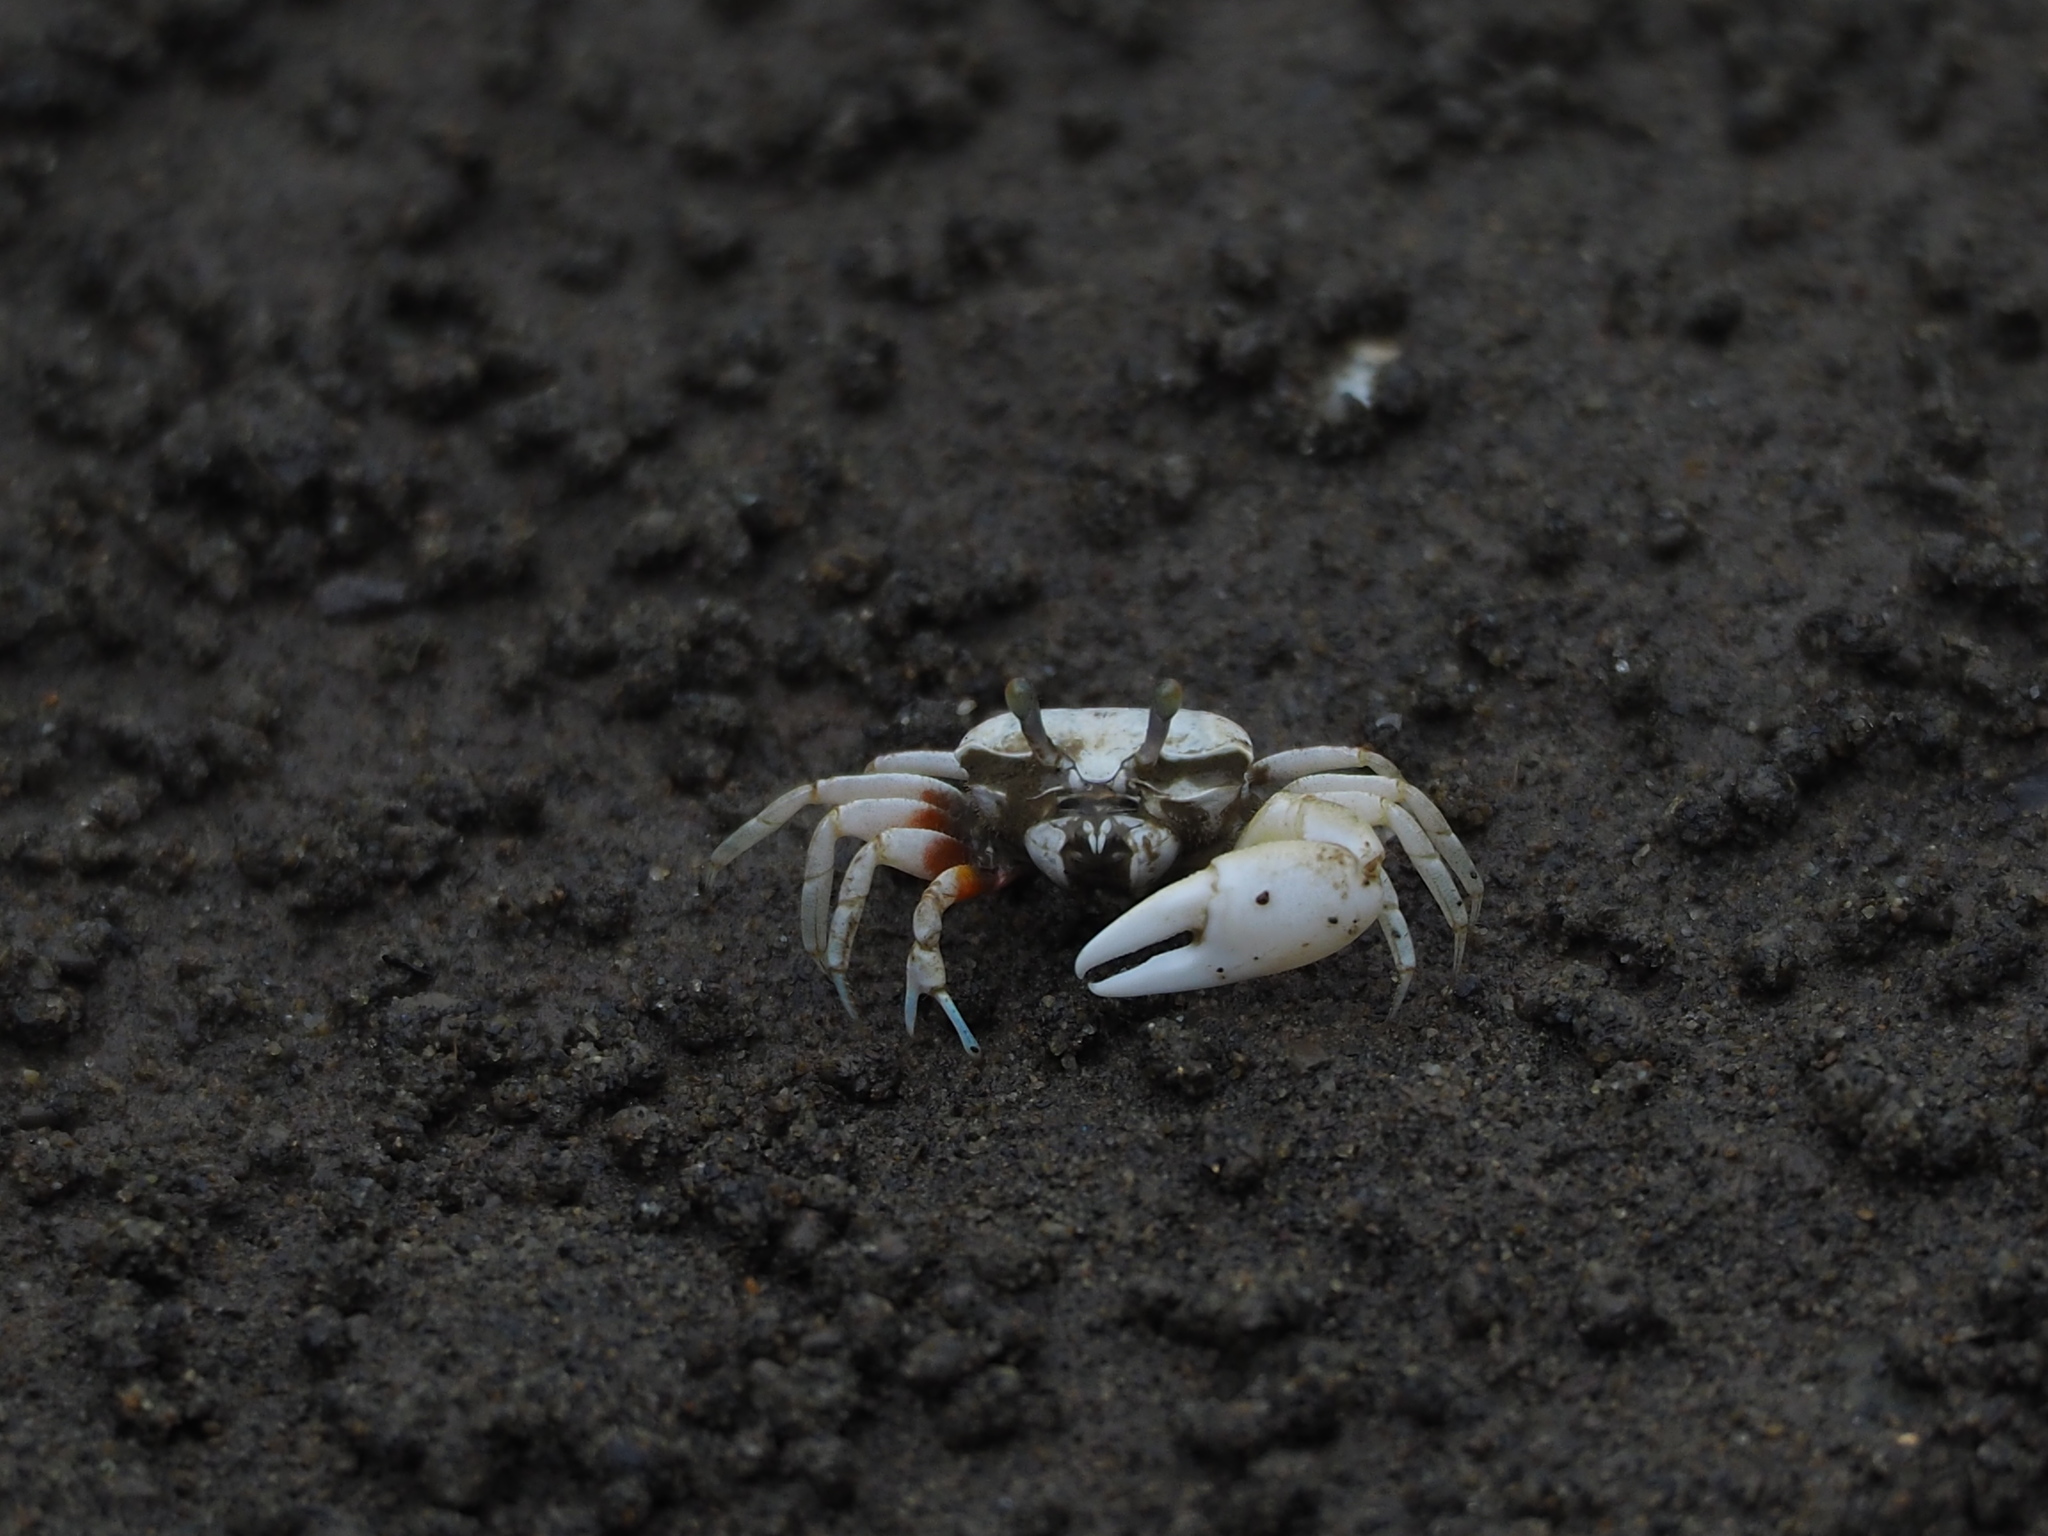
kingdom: Animalia
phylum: Arthropoda
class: Malacostraca
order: Decapoda
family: Ocypodidae
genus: Austruca
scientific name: Austruca lactea
